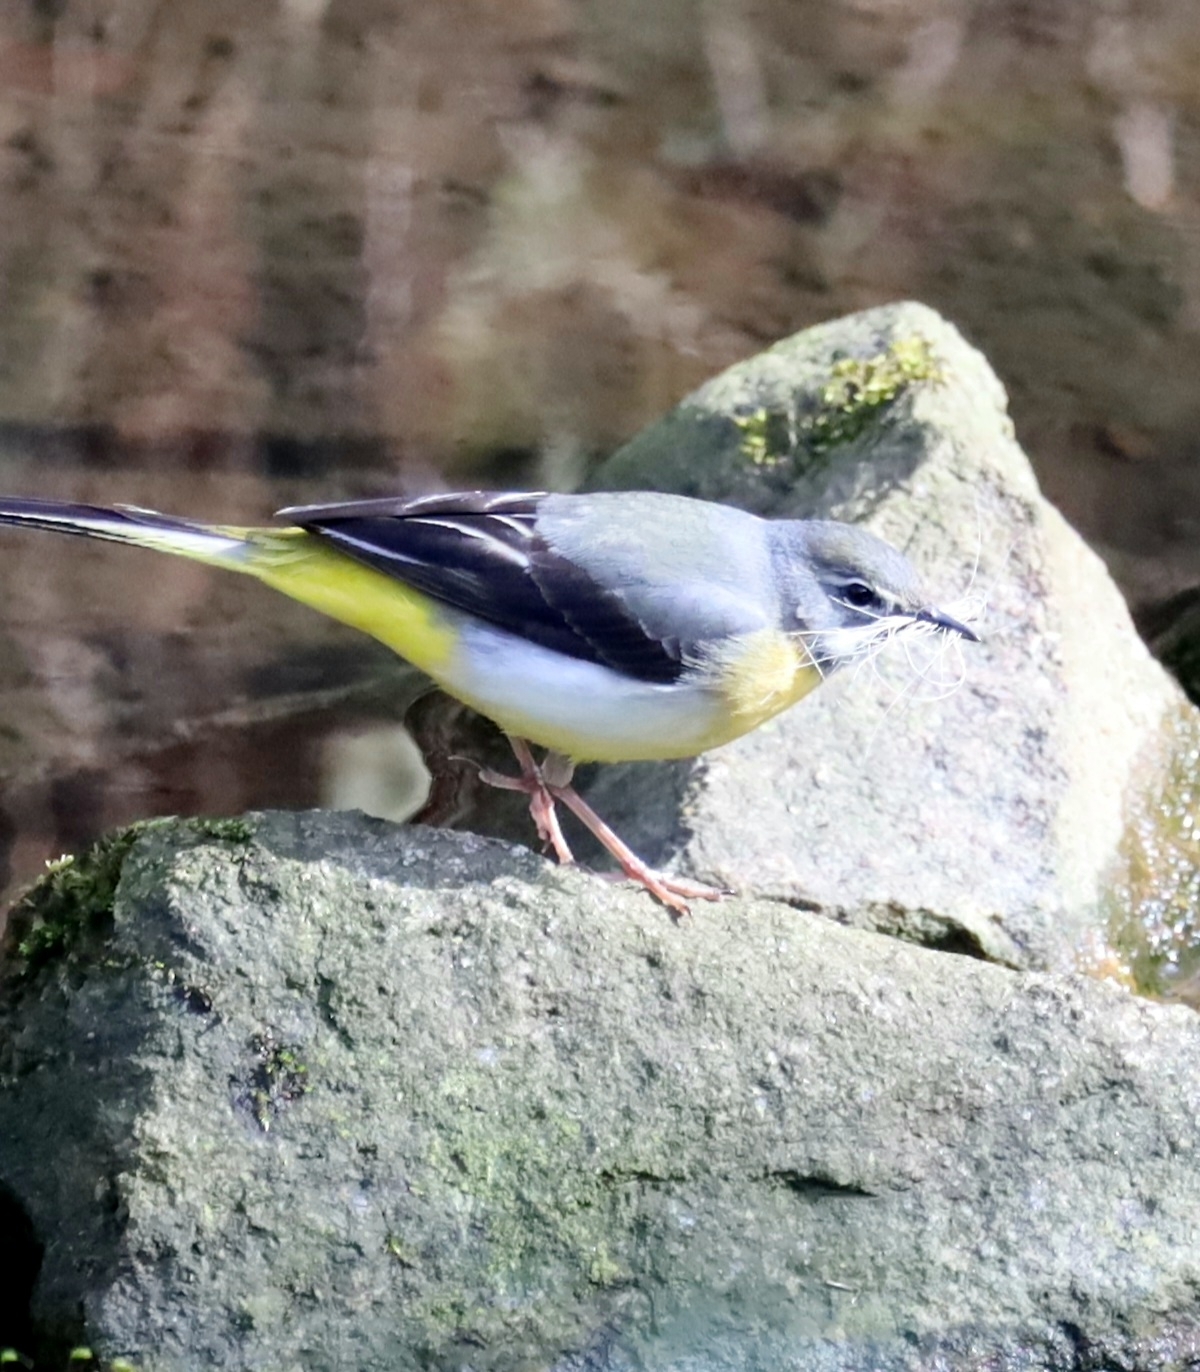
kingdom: Animalia
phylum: Chordata
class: Aves
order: Passeriformes
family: Motacillidae
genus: Motacilla
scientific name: Motacilla cinerea
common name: Grey wagtail
